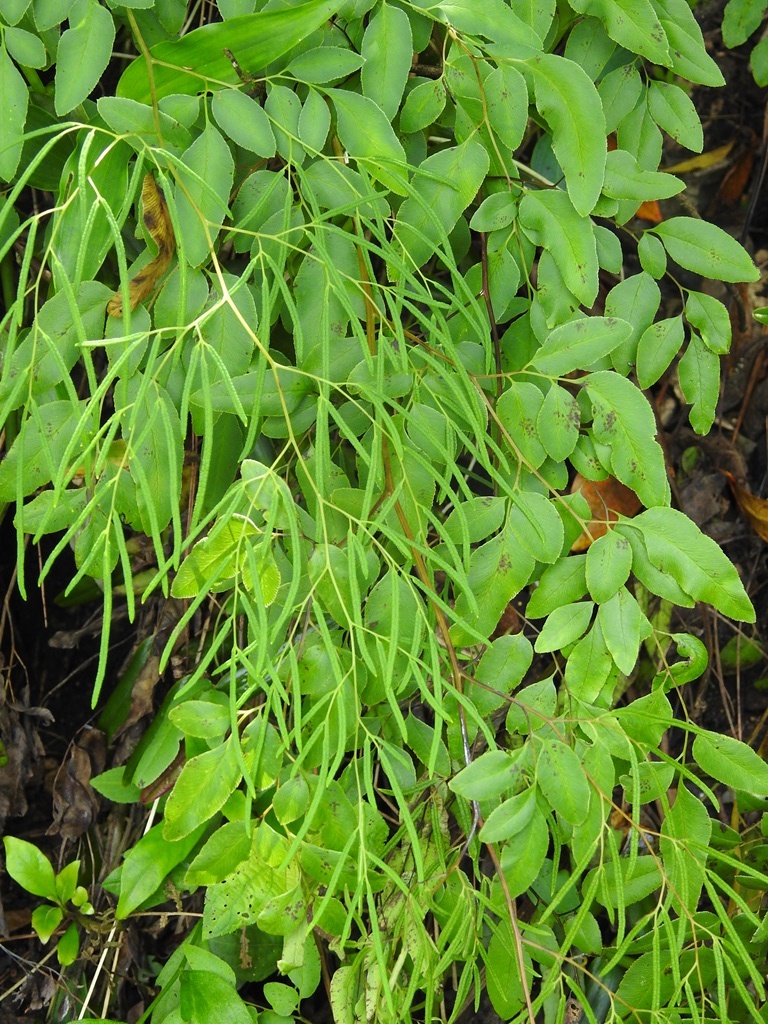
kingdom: Plantae
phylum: Tracheophyta
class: Polypodiopsida
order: Polypodiales
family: Pteridaceae
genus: Llavea
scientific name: Llavea cordifolia
